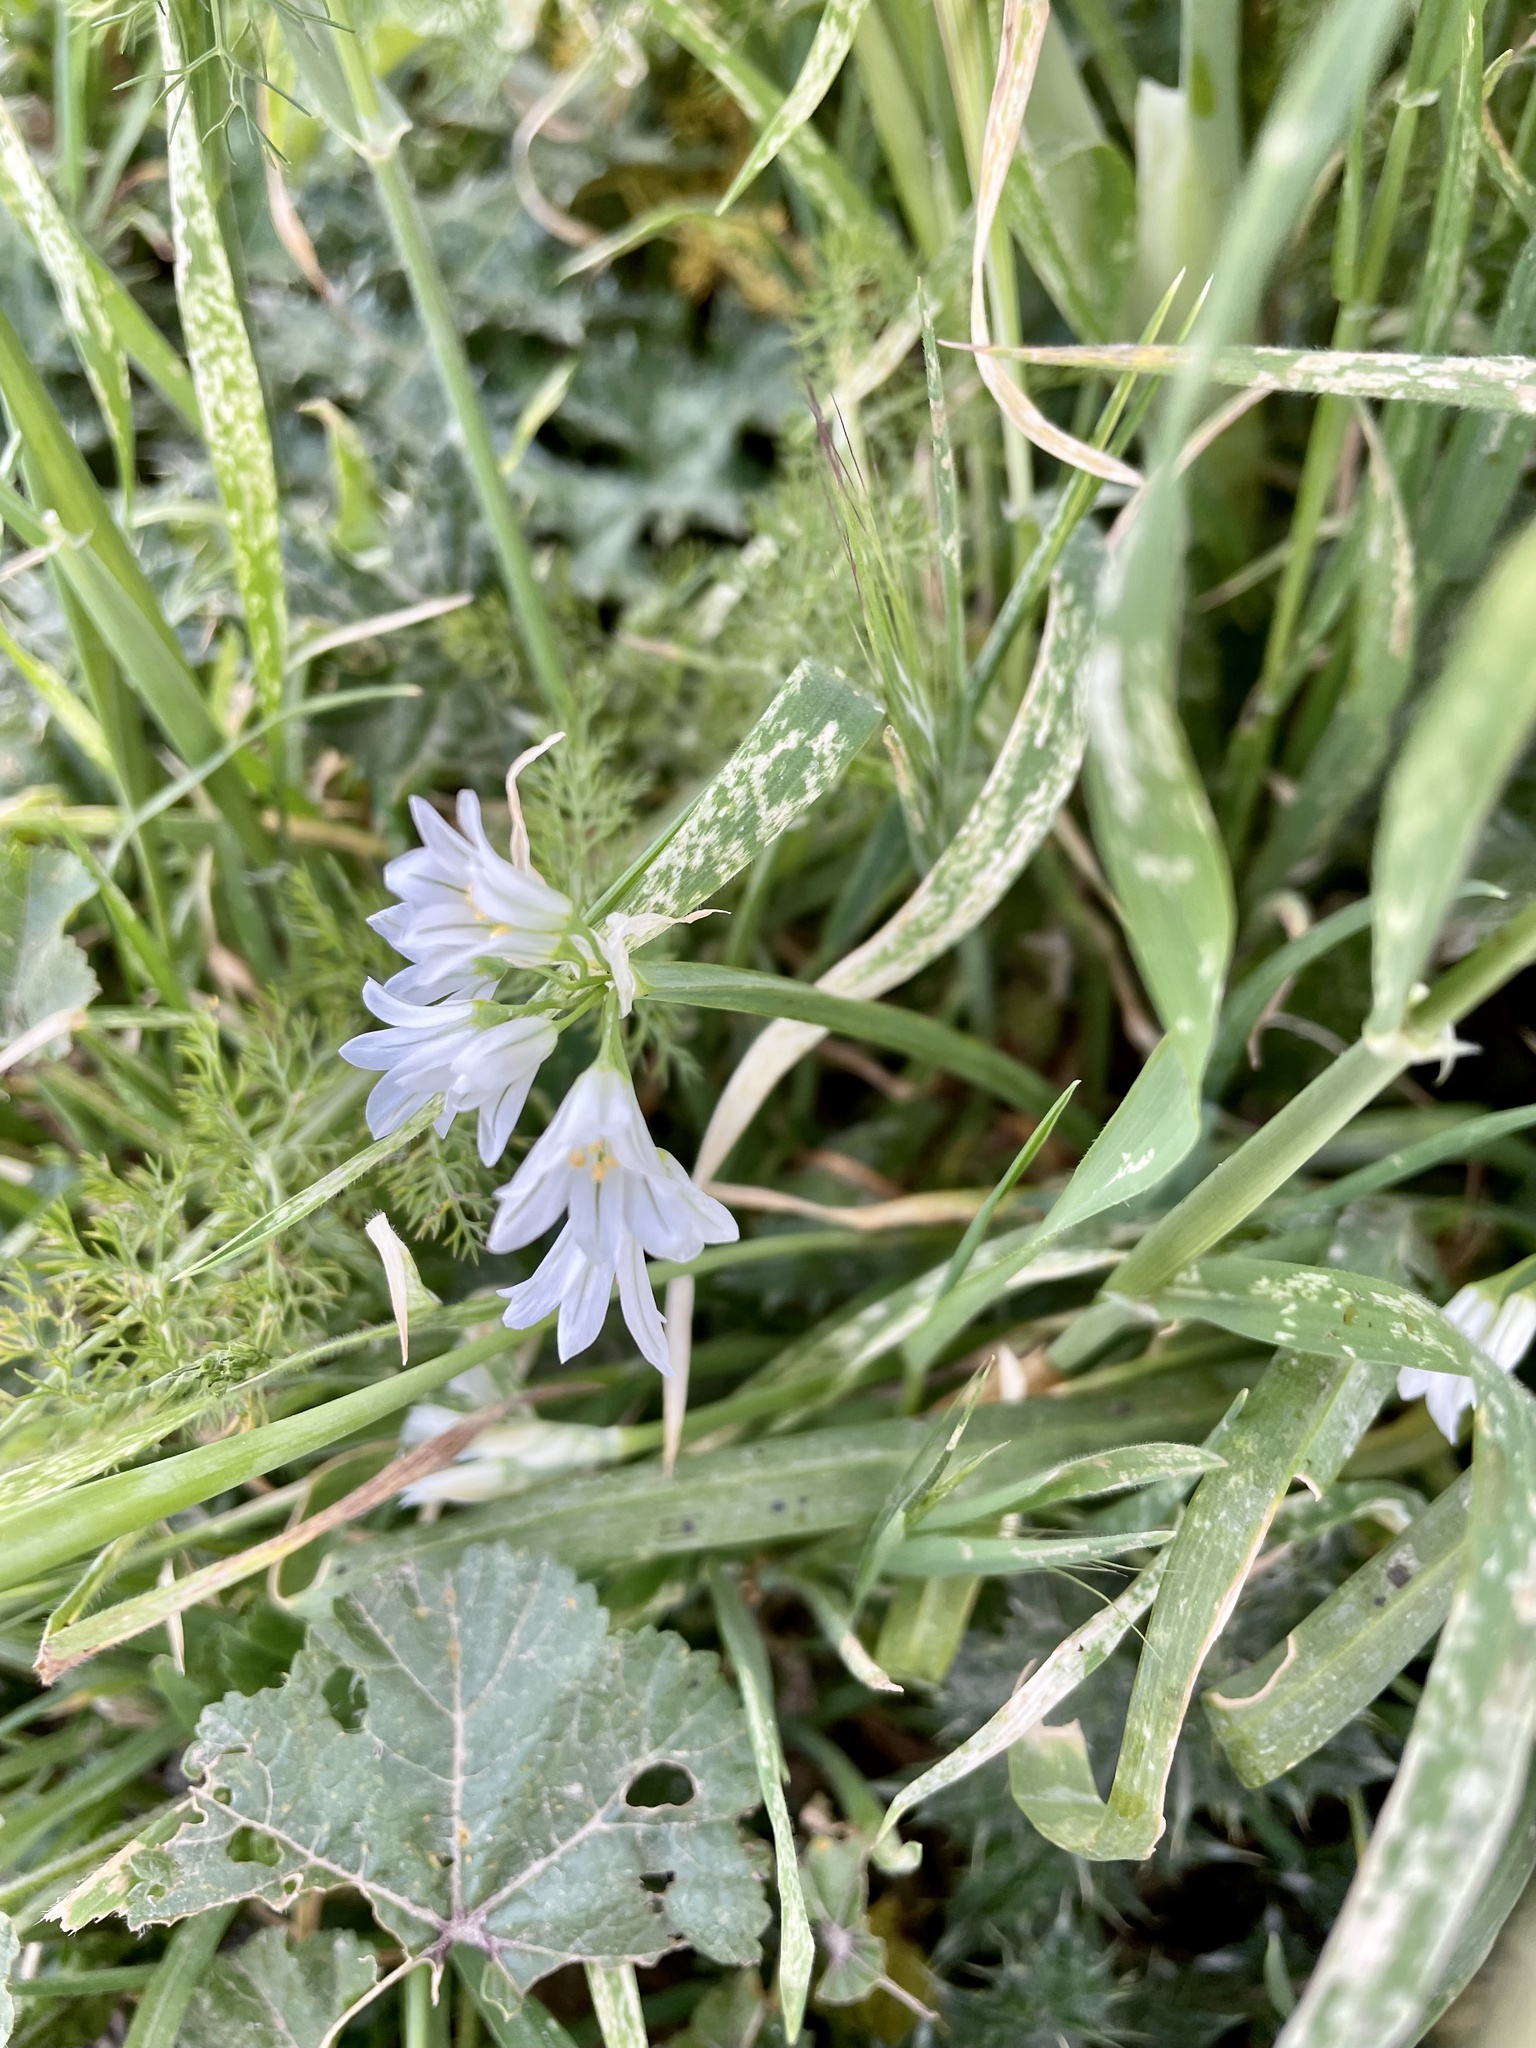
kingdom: Plantae
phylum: Tracheophyta
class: Liliopsida
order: Asparagales
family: Amaryllidaceae
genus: Allium
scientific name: Allium triquetrum
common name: Three-cornered garlic
